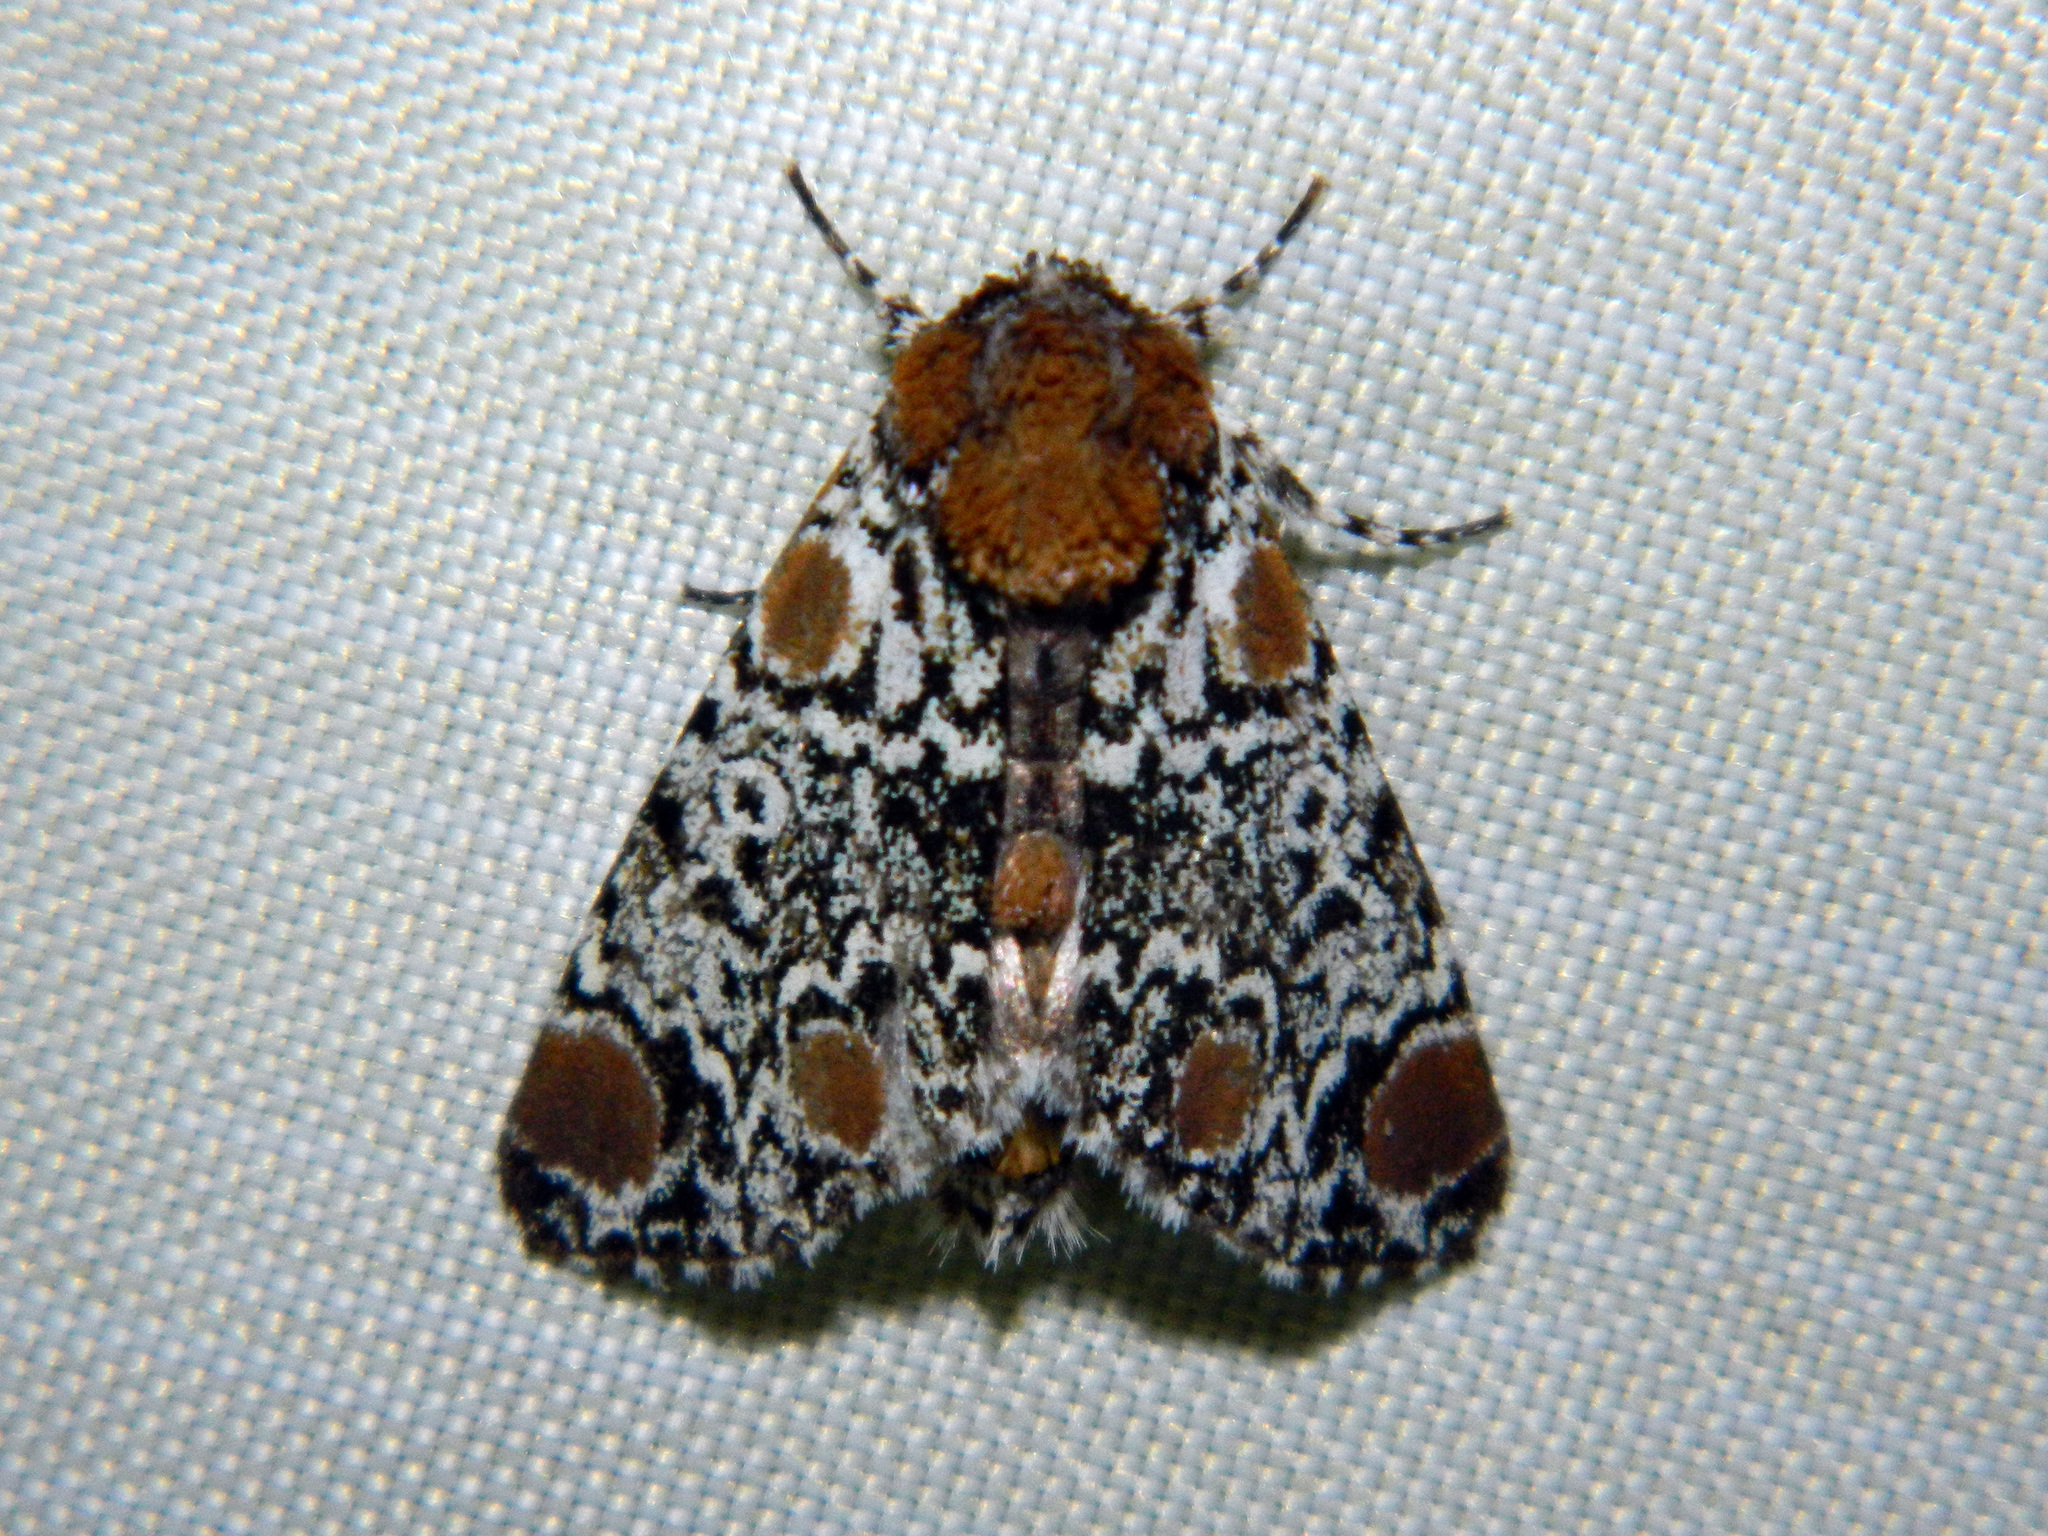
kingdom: Animalia
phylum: Arthropoda
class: Insecta
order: Lepidoptera
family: Noctuidae
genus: Harrisimemna
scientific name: Harrisimemna trisignata
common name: Harris threespot
